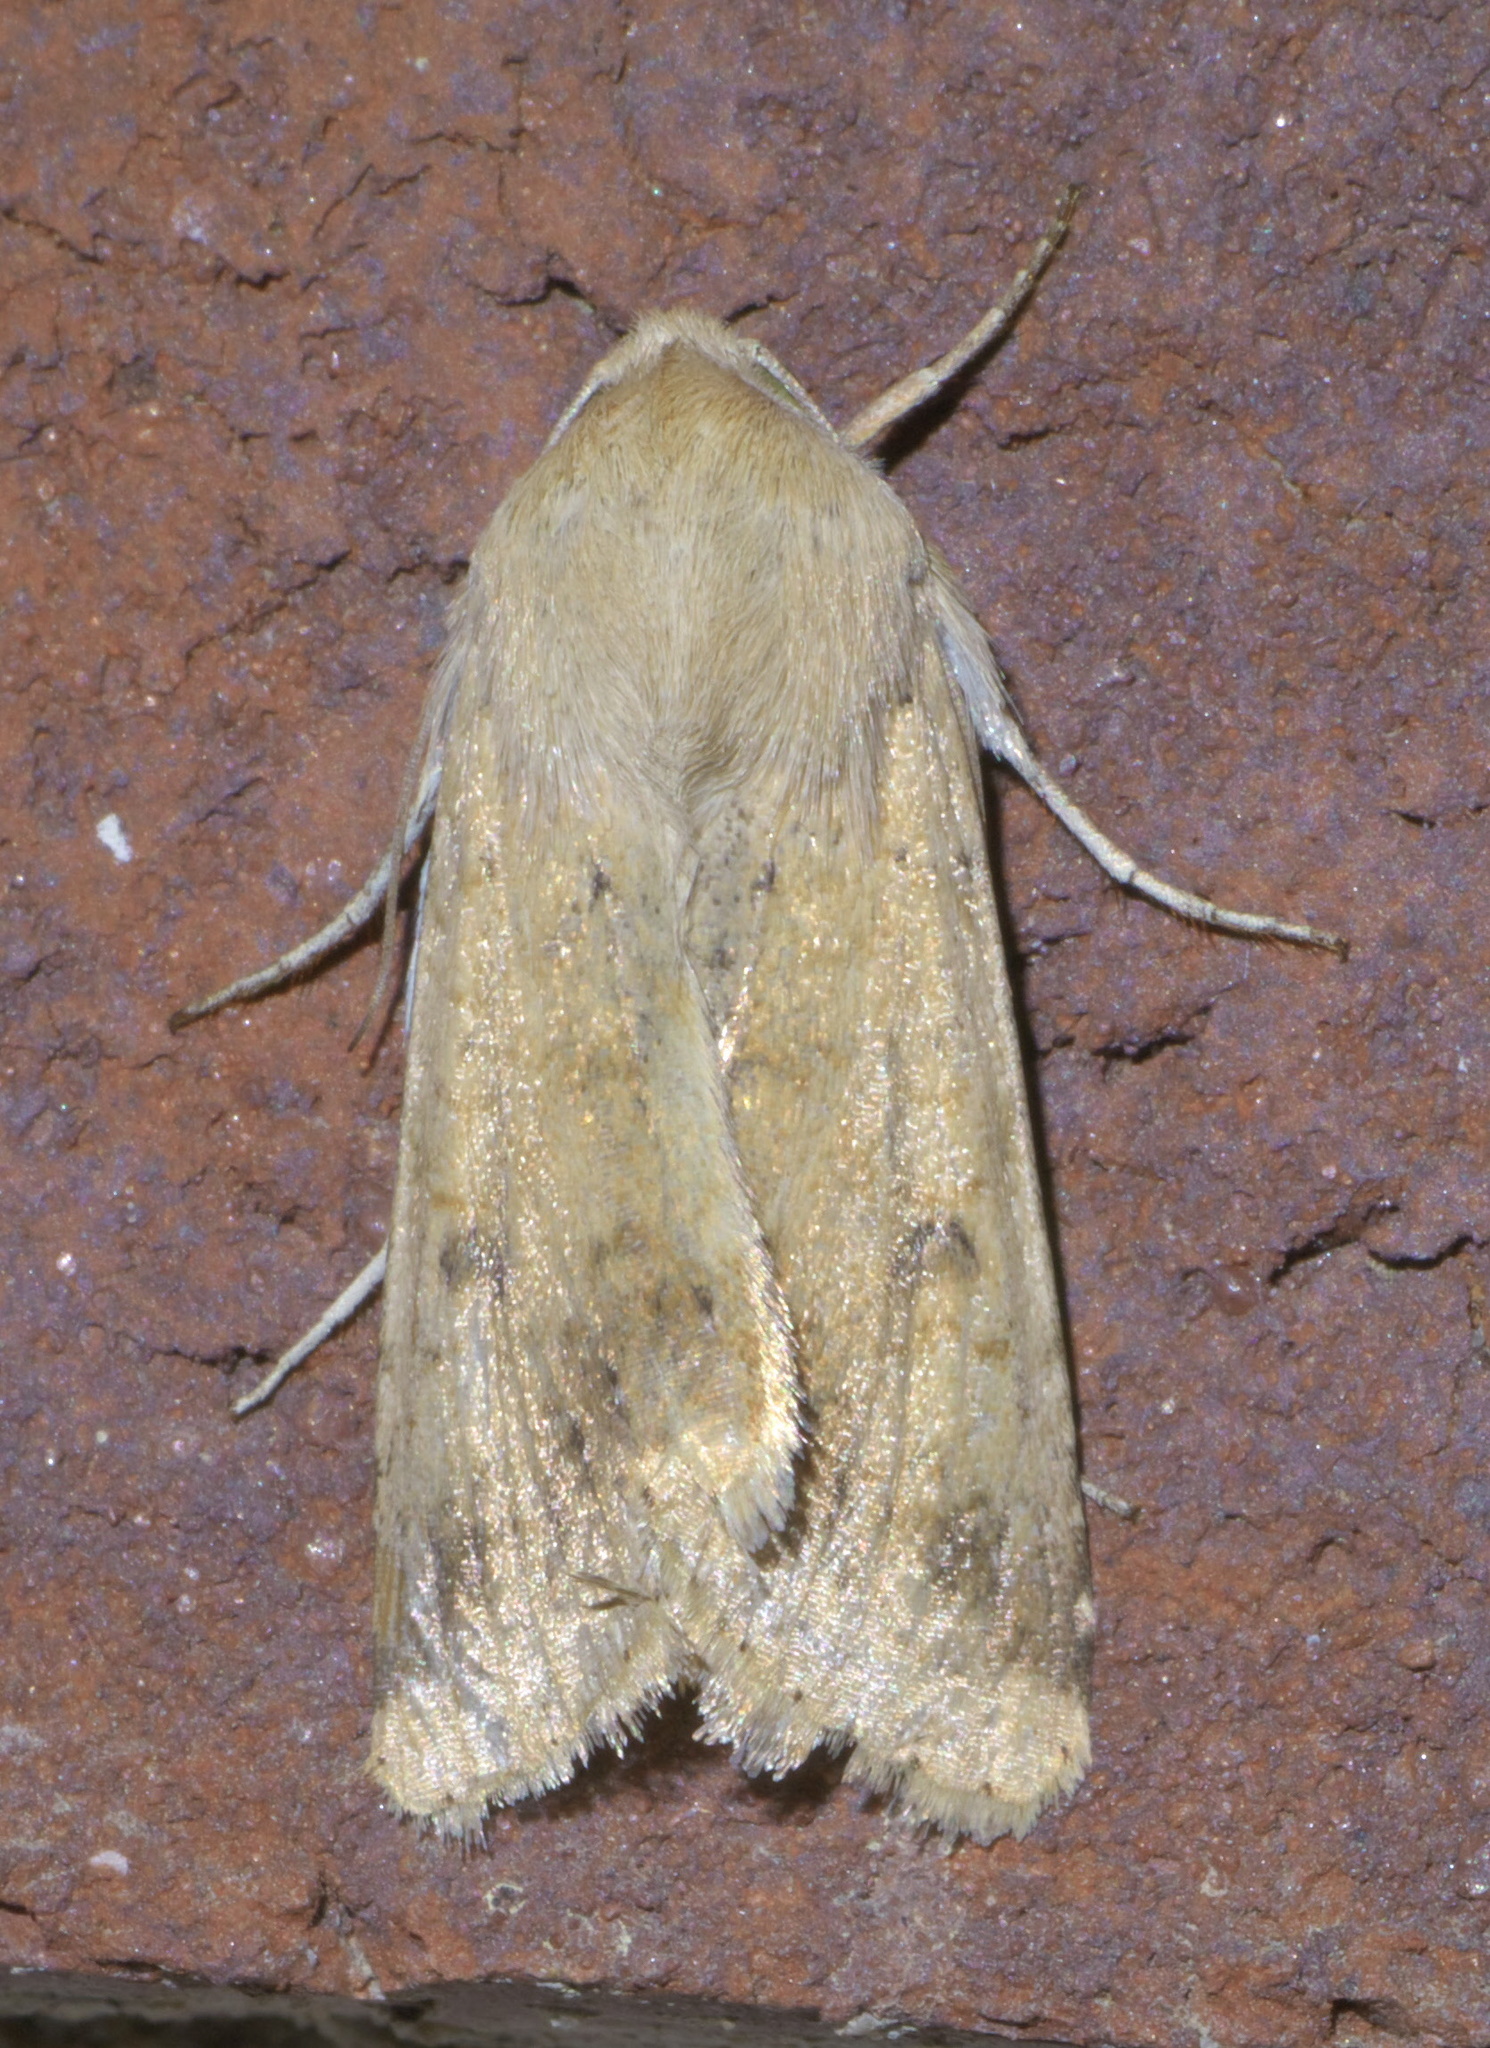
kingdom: Animalia
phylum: Arthropoda
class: Insecta
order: Lepidoptera
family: Noctuidae
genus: Helicoverpa
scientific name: Helicoverpa zea
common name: Bollworm
